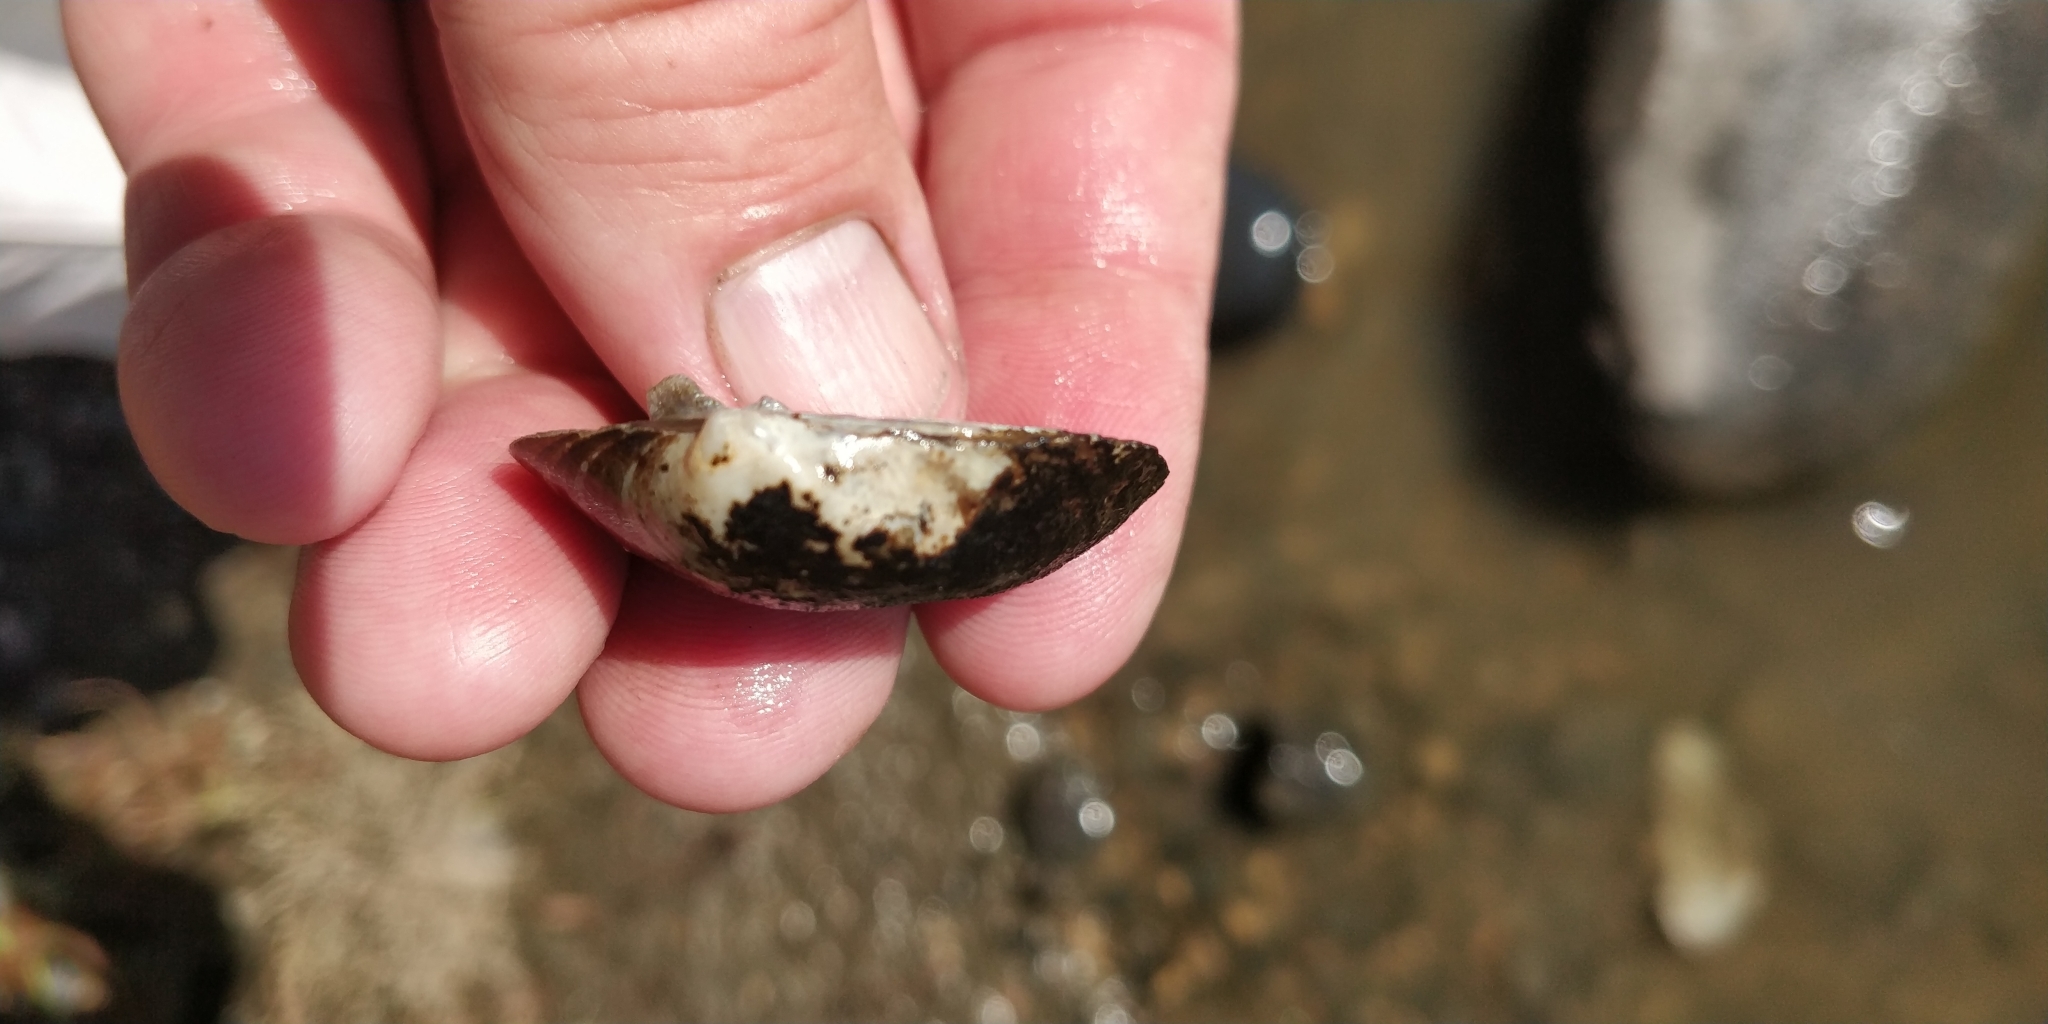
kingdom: Animalia
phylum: Mollusca
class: Bivalvia
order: Unionida
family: Unionidae
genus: Cyclonaias
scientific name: Cyclonaias pustulosa
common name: Pimpleback
